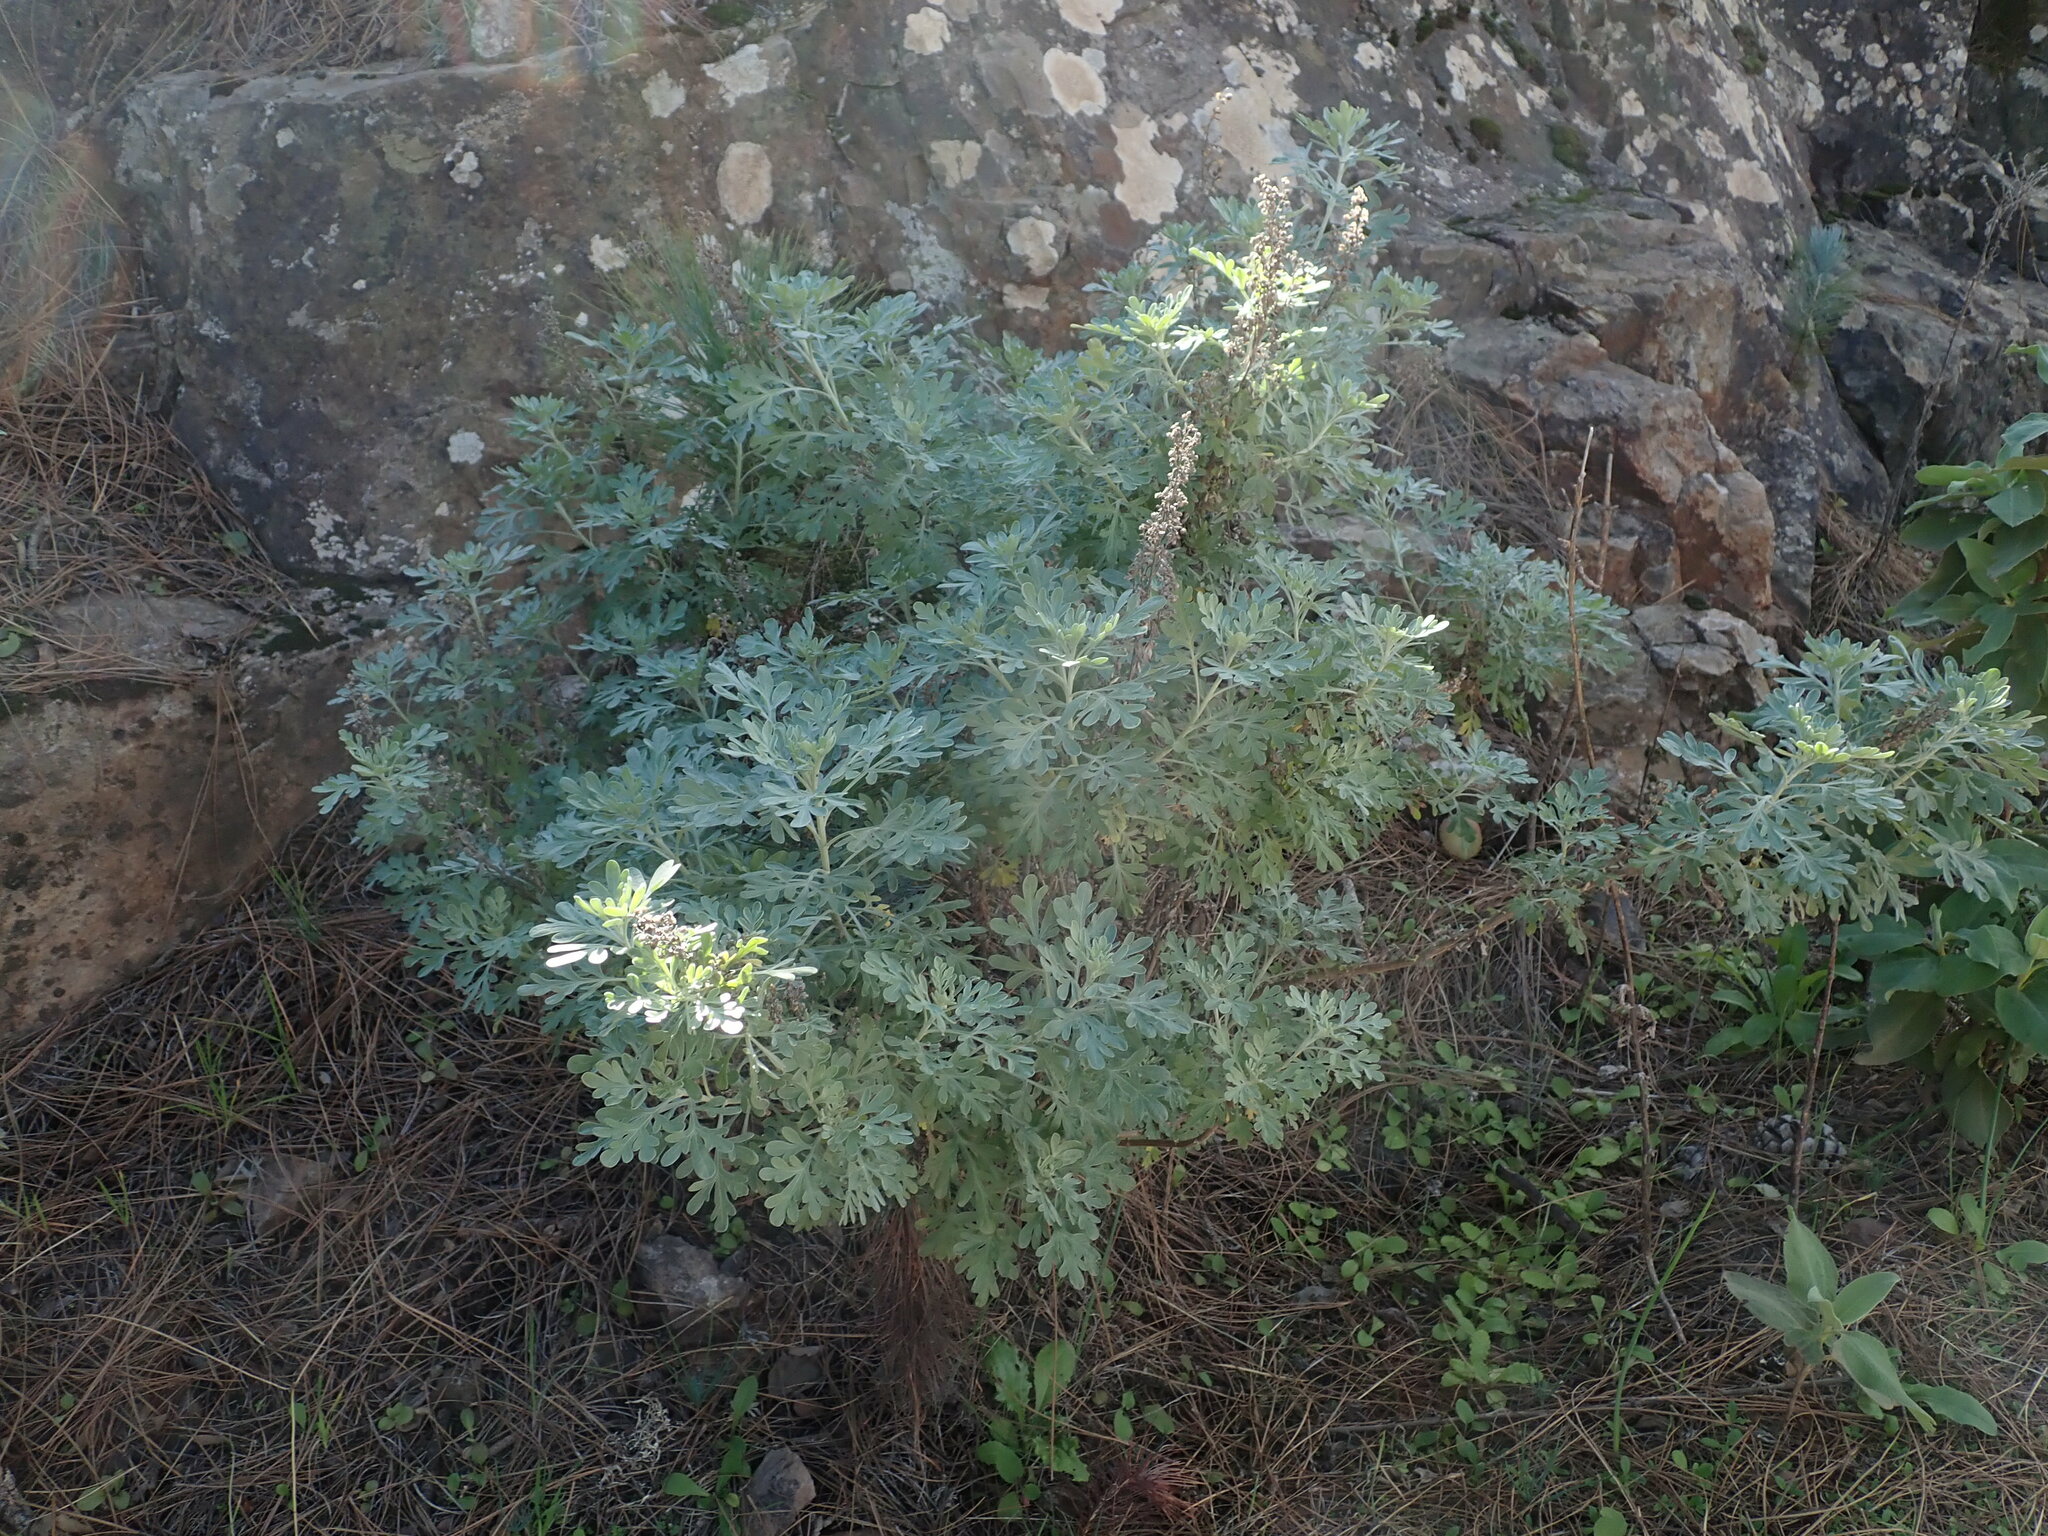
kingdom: Plantae
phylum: Tracheophyta
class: Magnoliopsida
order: Asterales
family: Asteraceae
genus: Artemisia
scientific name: Artemisia thuscula
